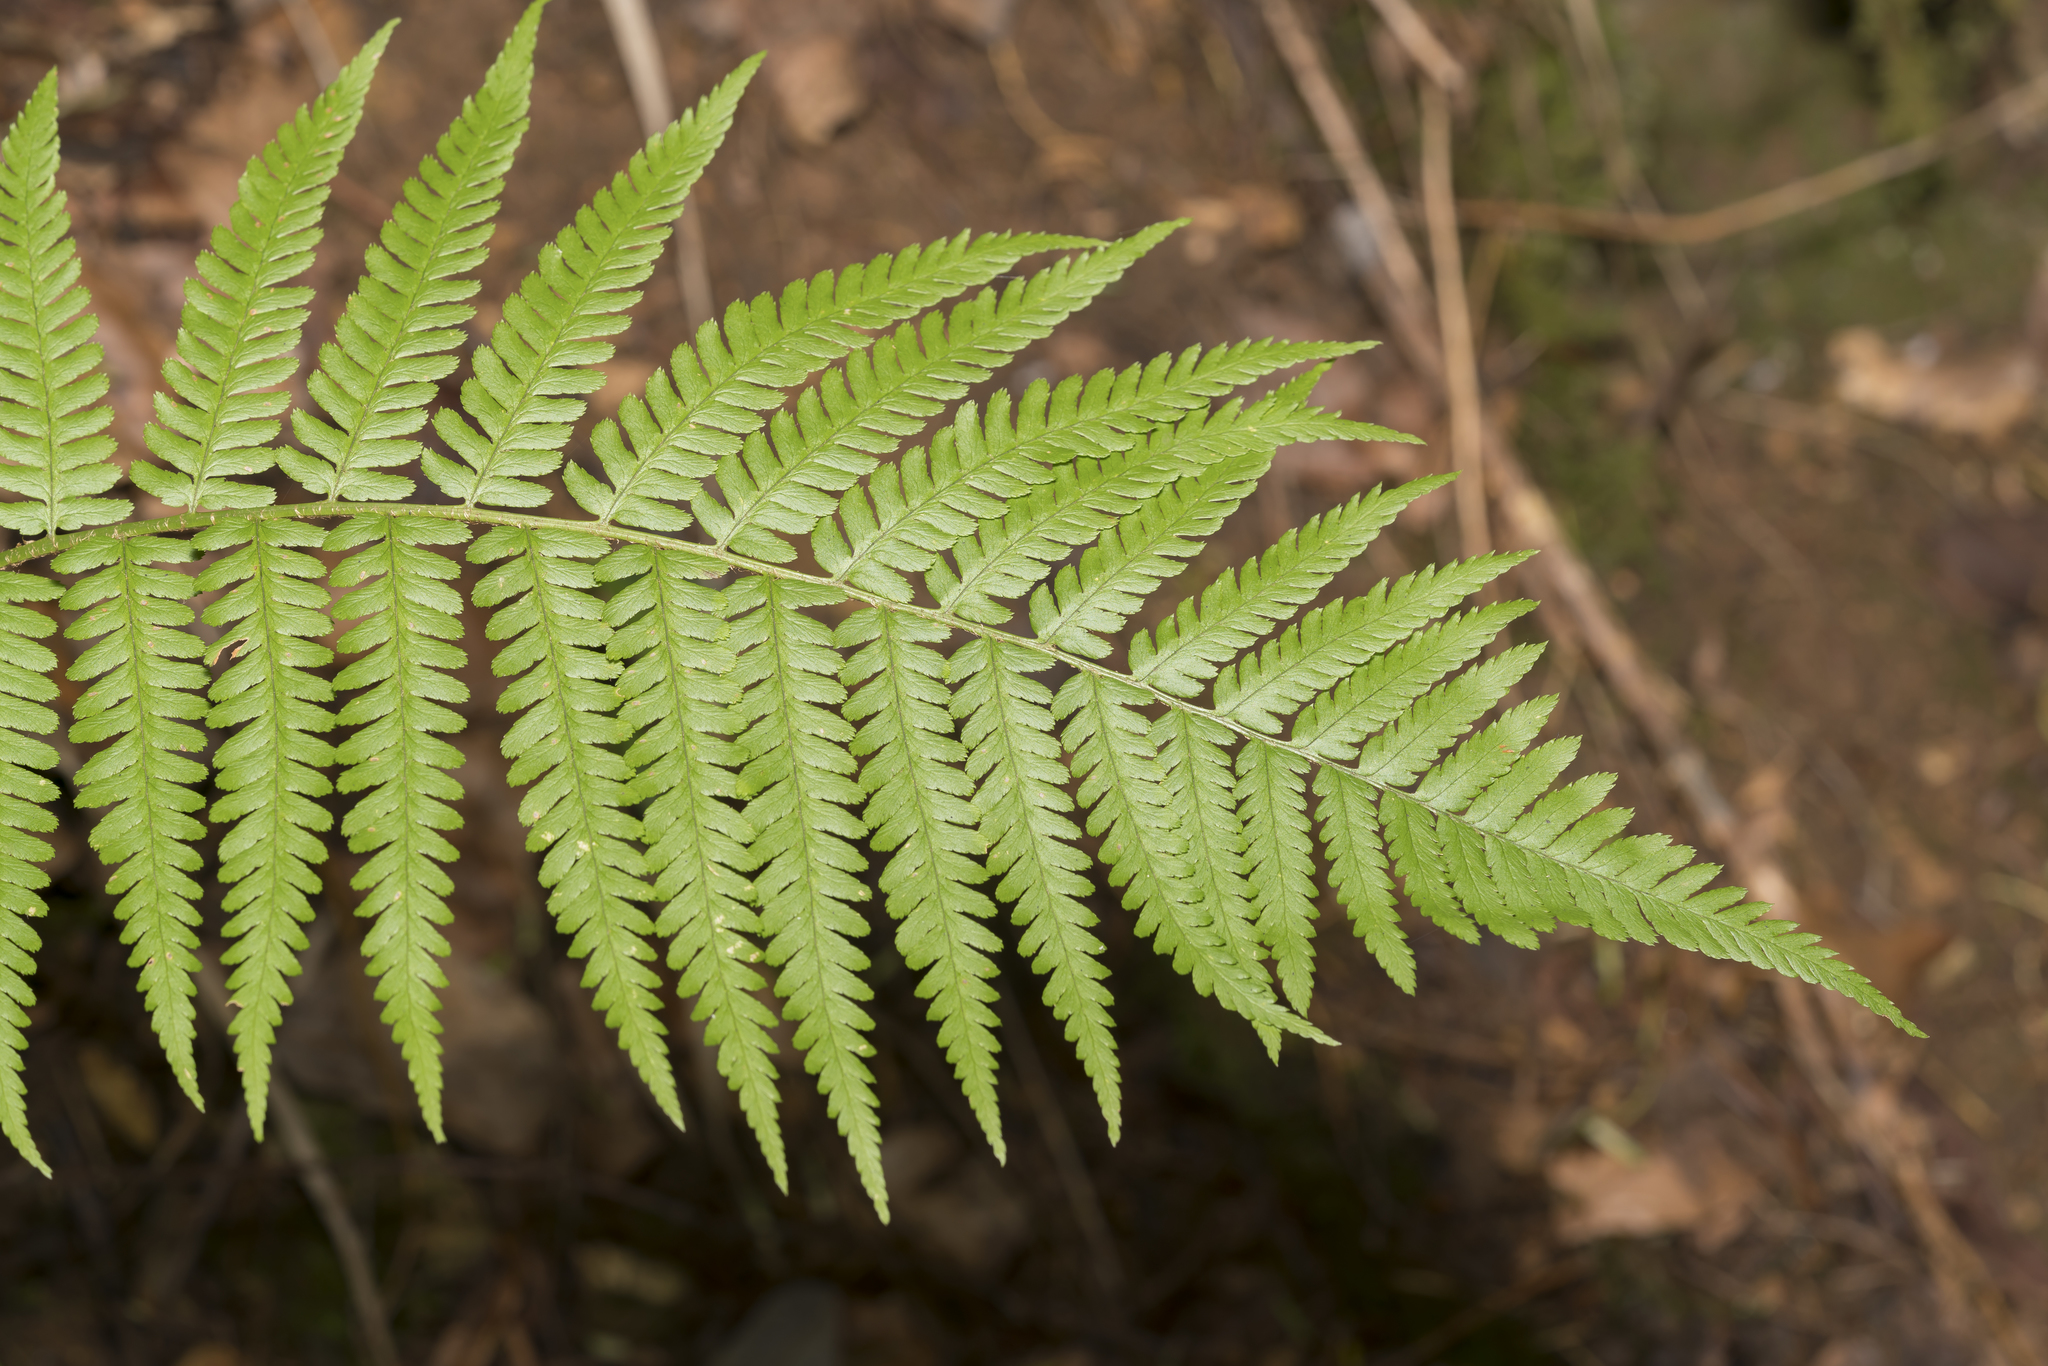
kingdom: Plantae
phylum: Tracheophyta
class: Polypodiopsida
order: Polypodiales
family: Dryopteridaceae
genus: Dryopteris
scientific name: Dryopteris filix-mas
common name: Male fern
